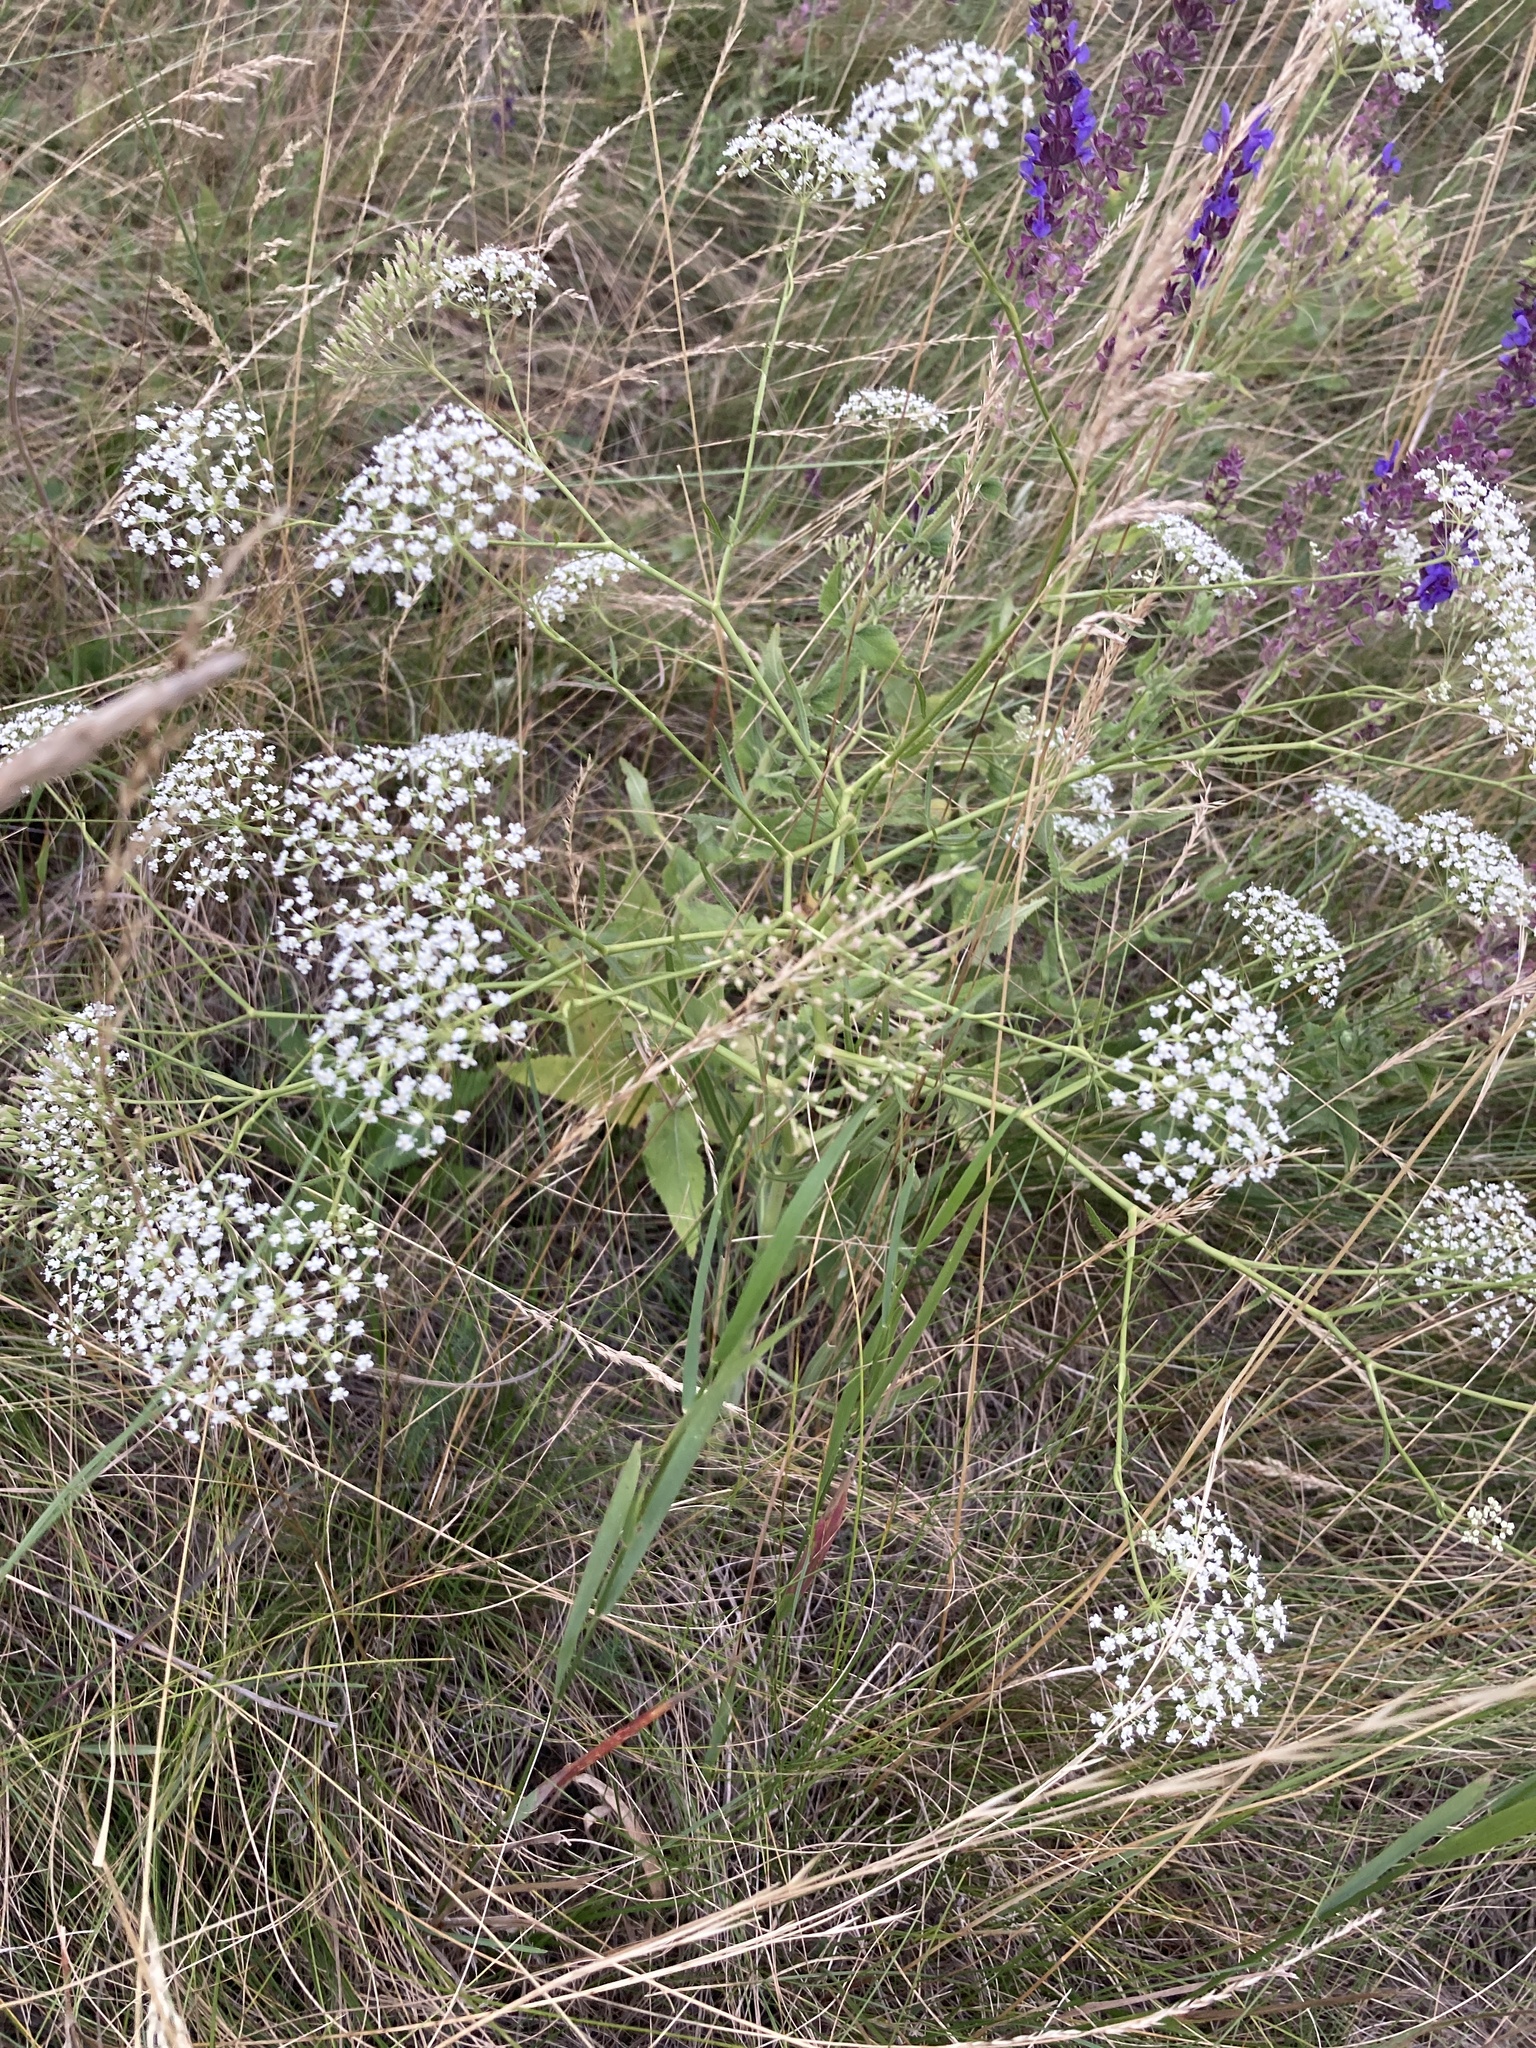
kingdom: Plantae
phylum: Tracheophyta
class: Magnoliopsida
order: Apiales
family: Apiaceae
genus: Falcaria
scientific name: Falcaria vulgaris
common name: Longleaf
